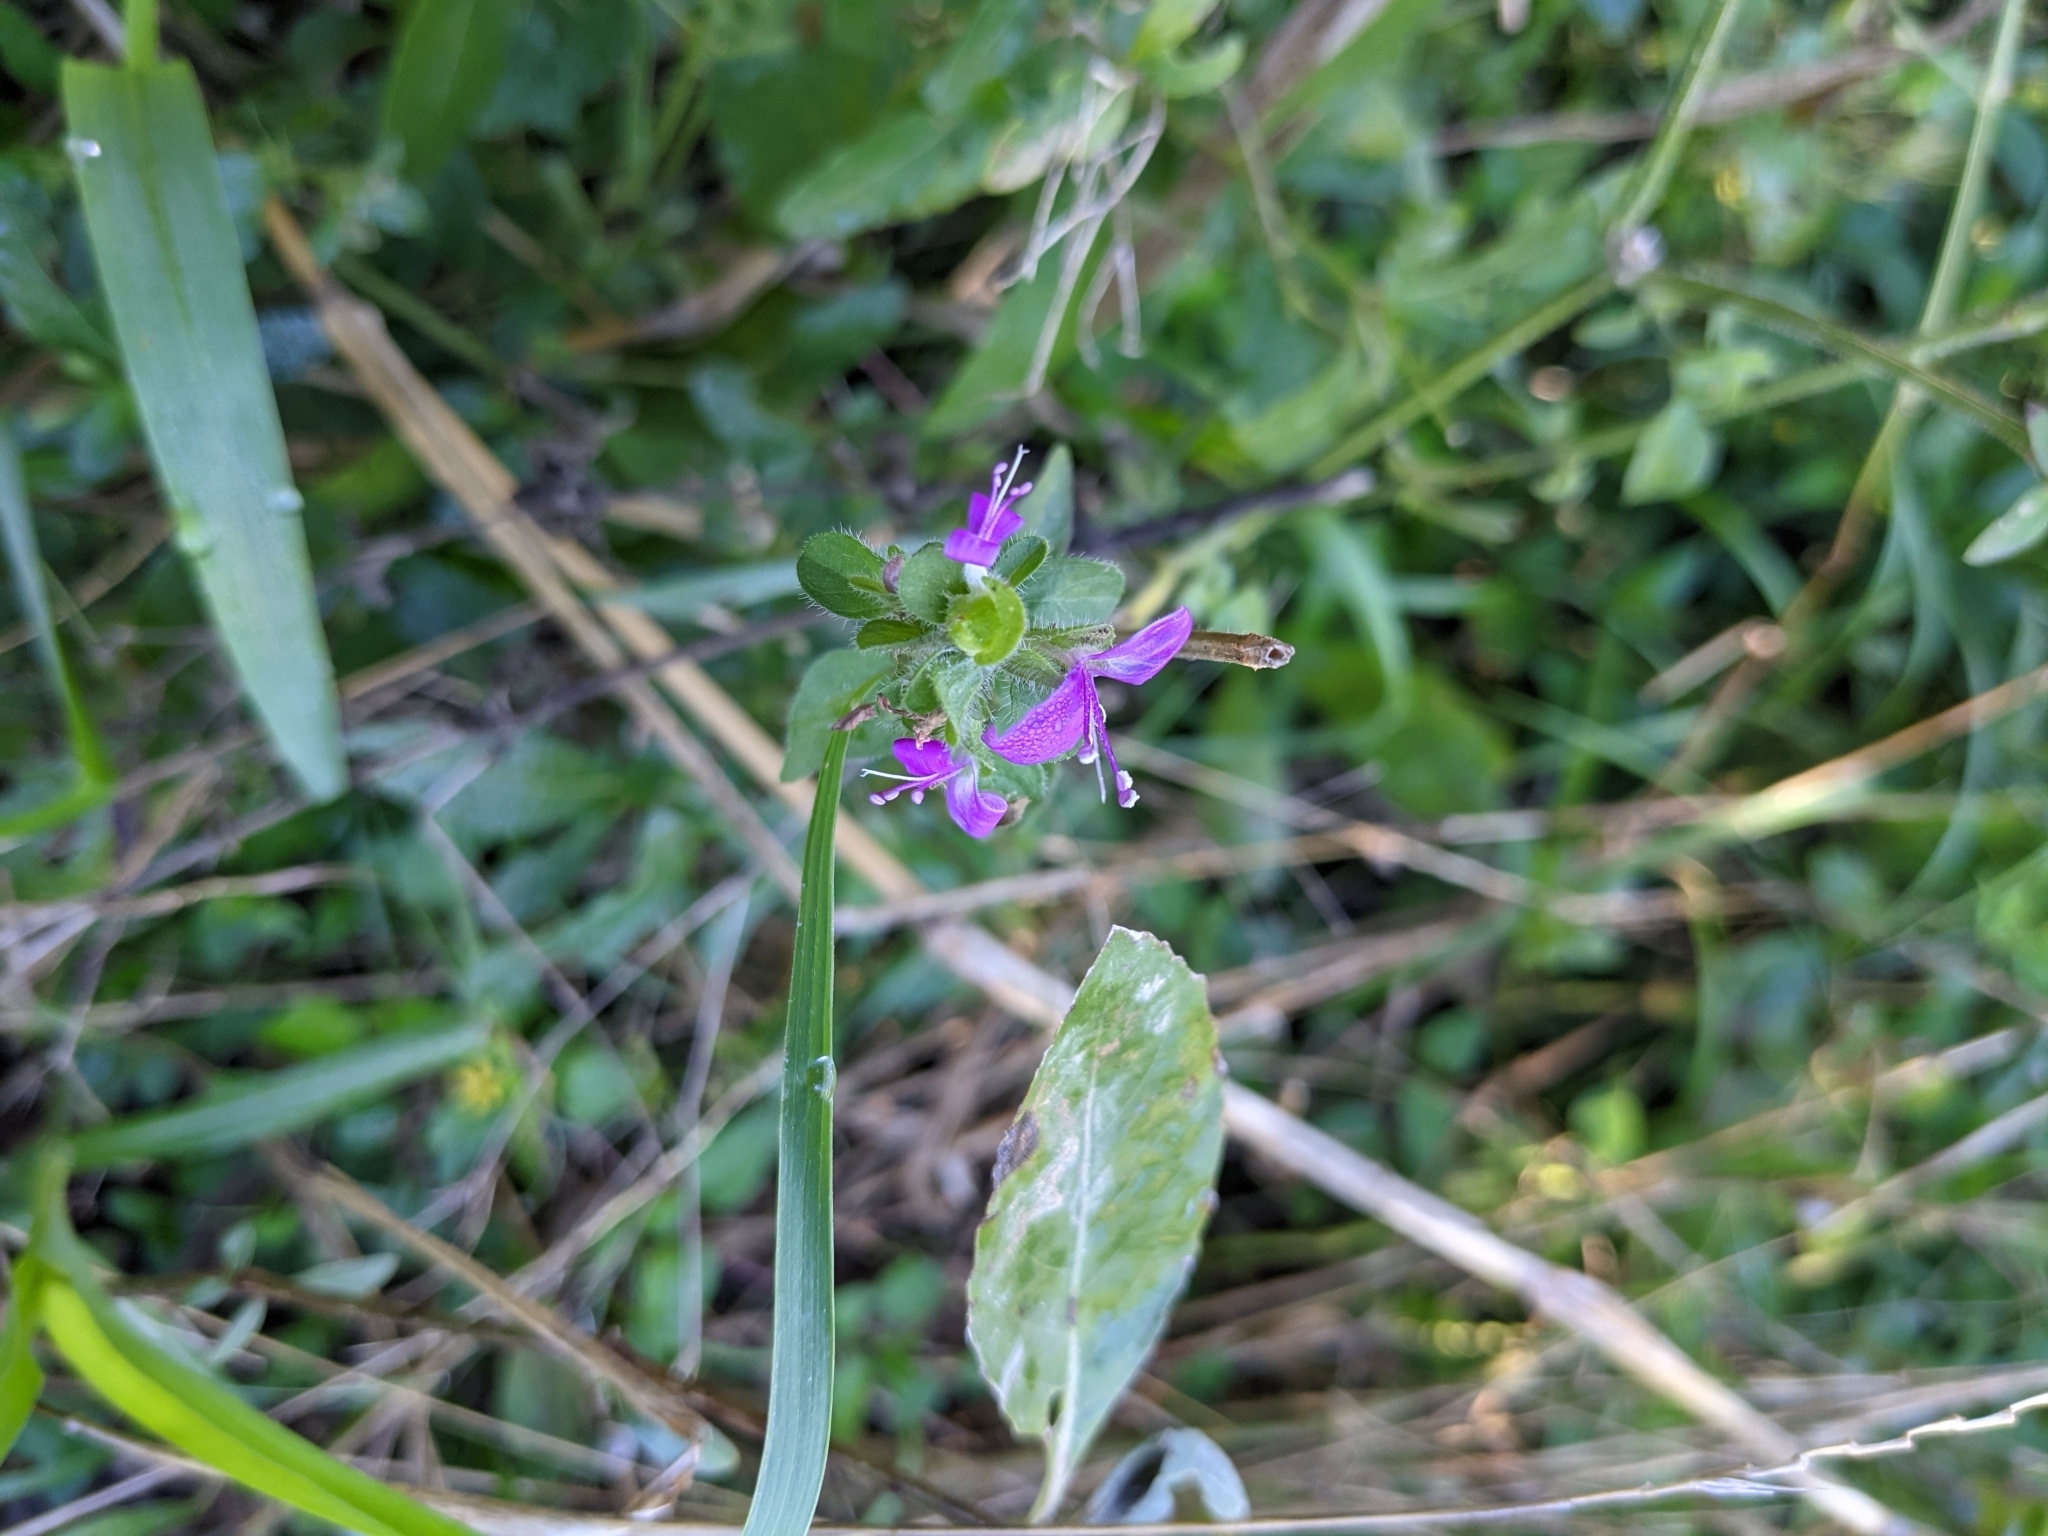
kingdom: Plantae
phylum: Tracheophyta
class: Magnoliopsida
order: Lamiales
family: Acanthaceae
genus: Dicliptera
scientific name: Dicliptera brachiata
